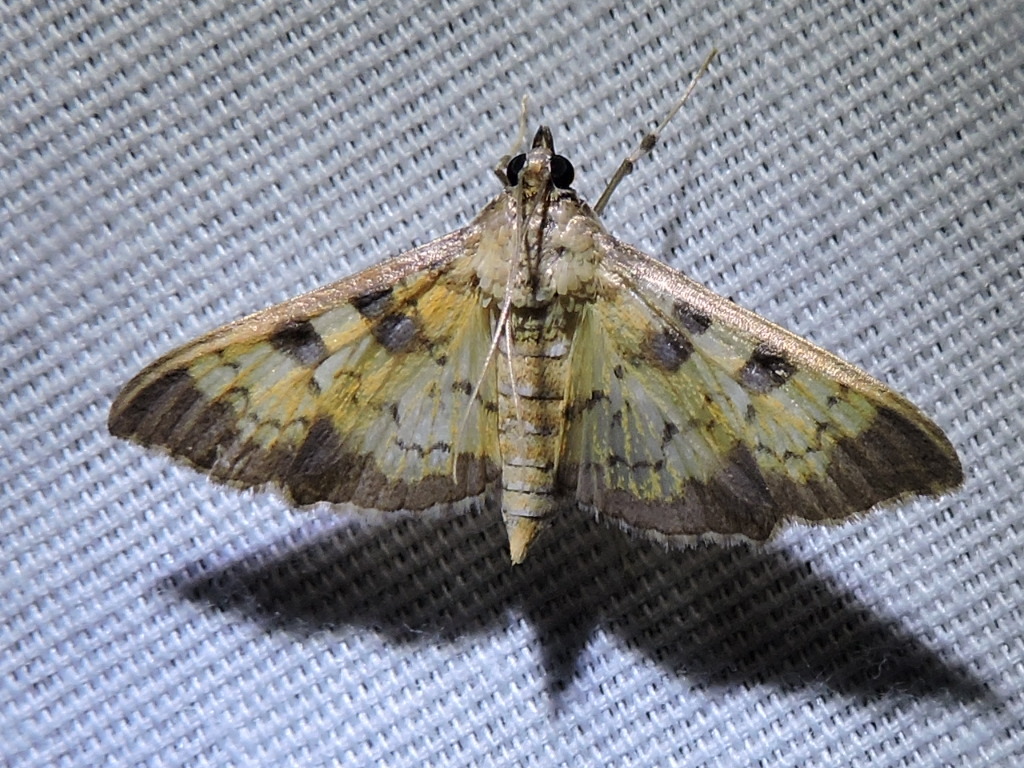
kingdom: Animalia
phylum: Arthropoda
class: Insecta
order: Lepidoptera
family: Crambidae
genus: Cryptographis
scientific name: Cryptographis elealis
